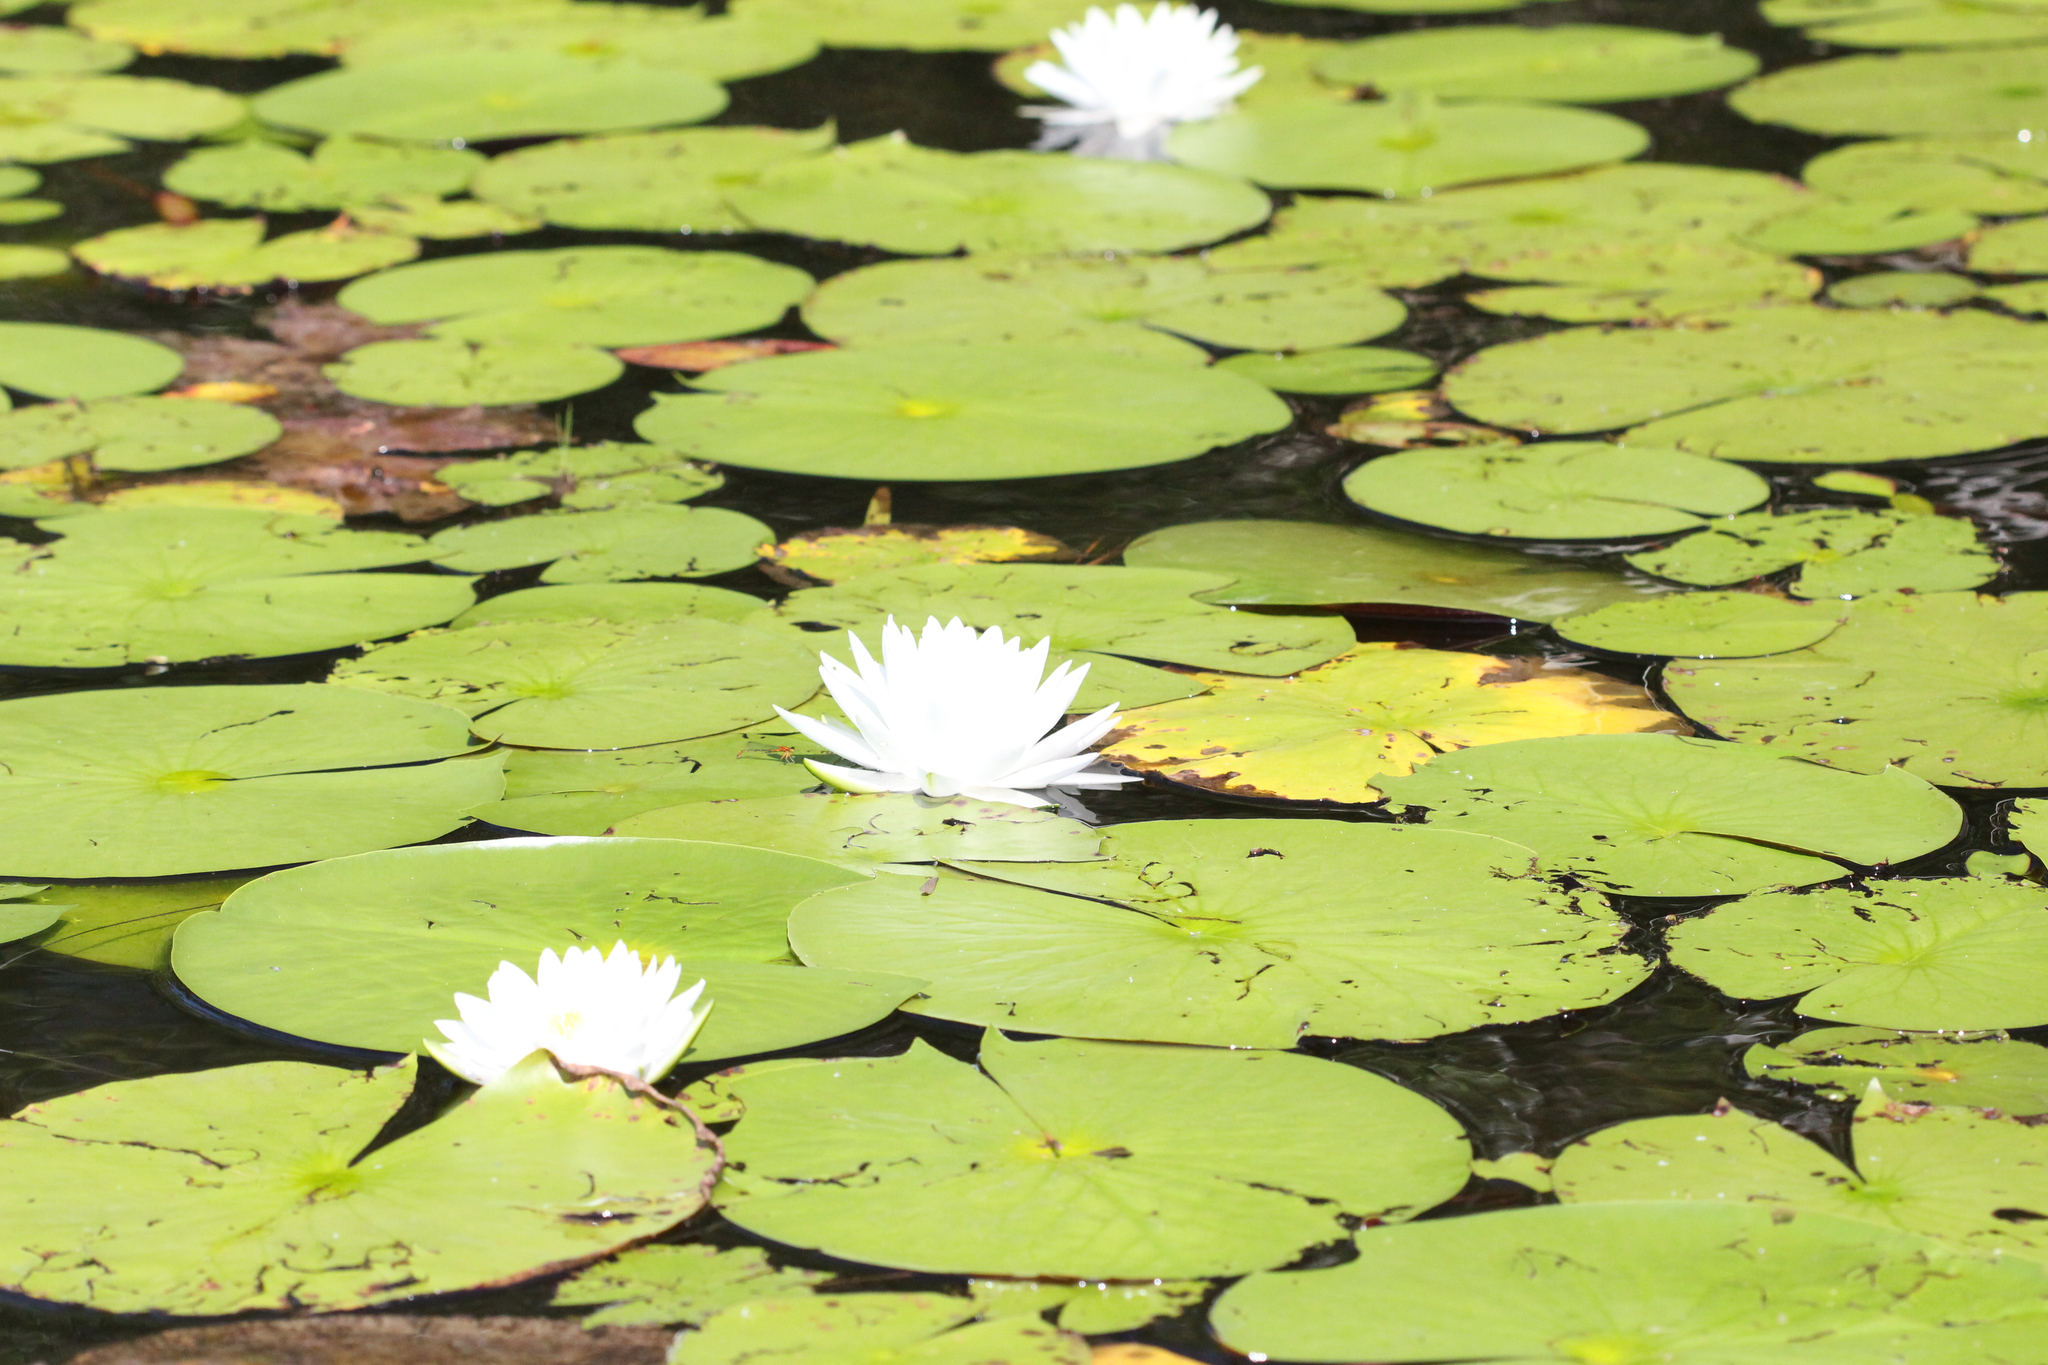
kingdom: Plantae
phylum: Tracheophyta
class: Magnoliopsida
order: Nymphaeales
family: Nymphaeaceae
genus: Nymphaea
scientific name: Nymphaea odorata
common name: Fragrant water-lily
